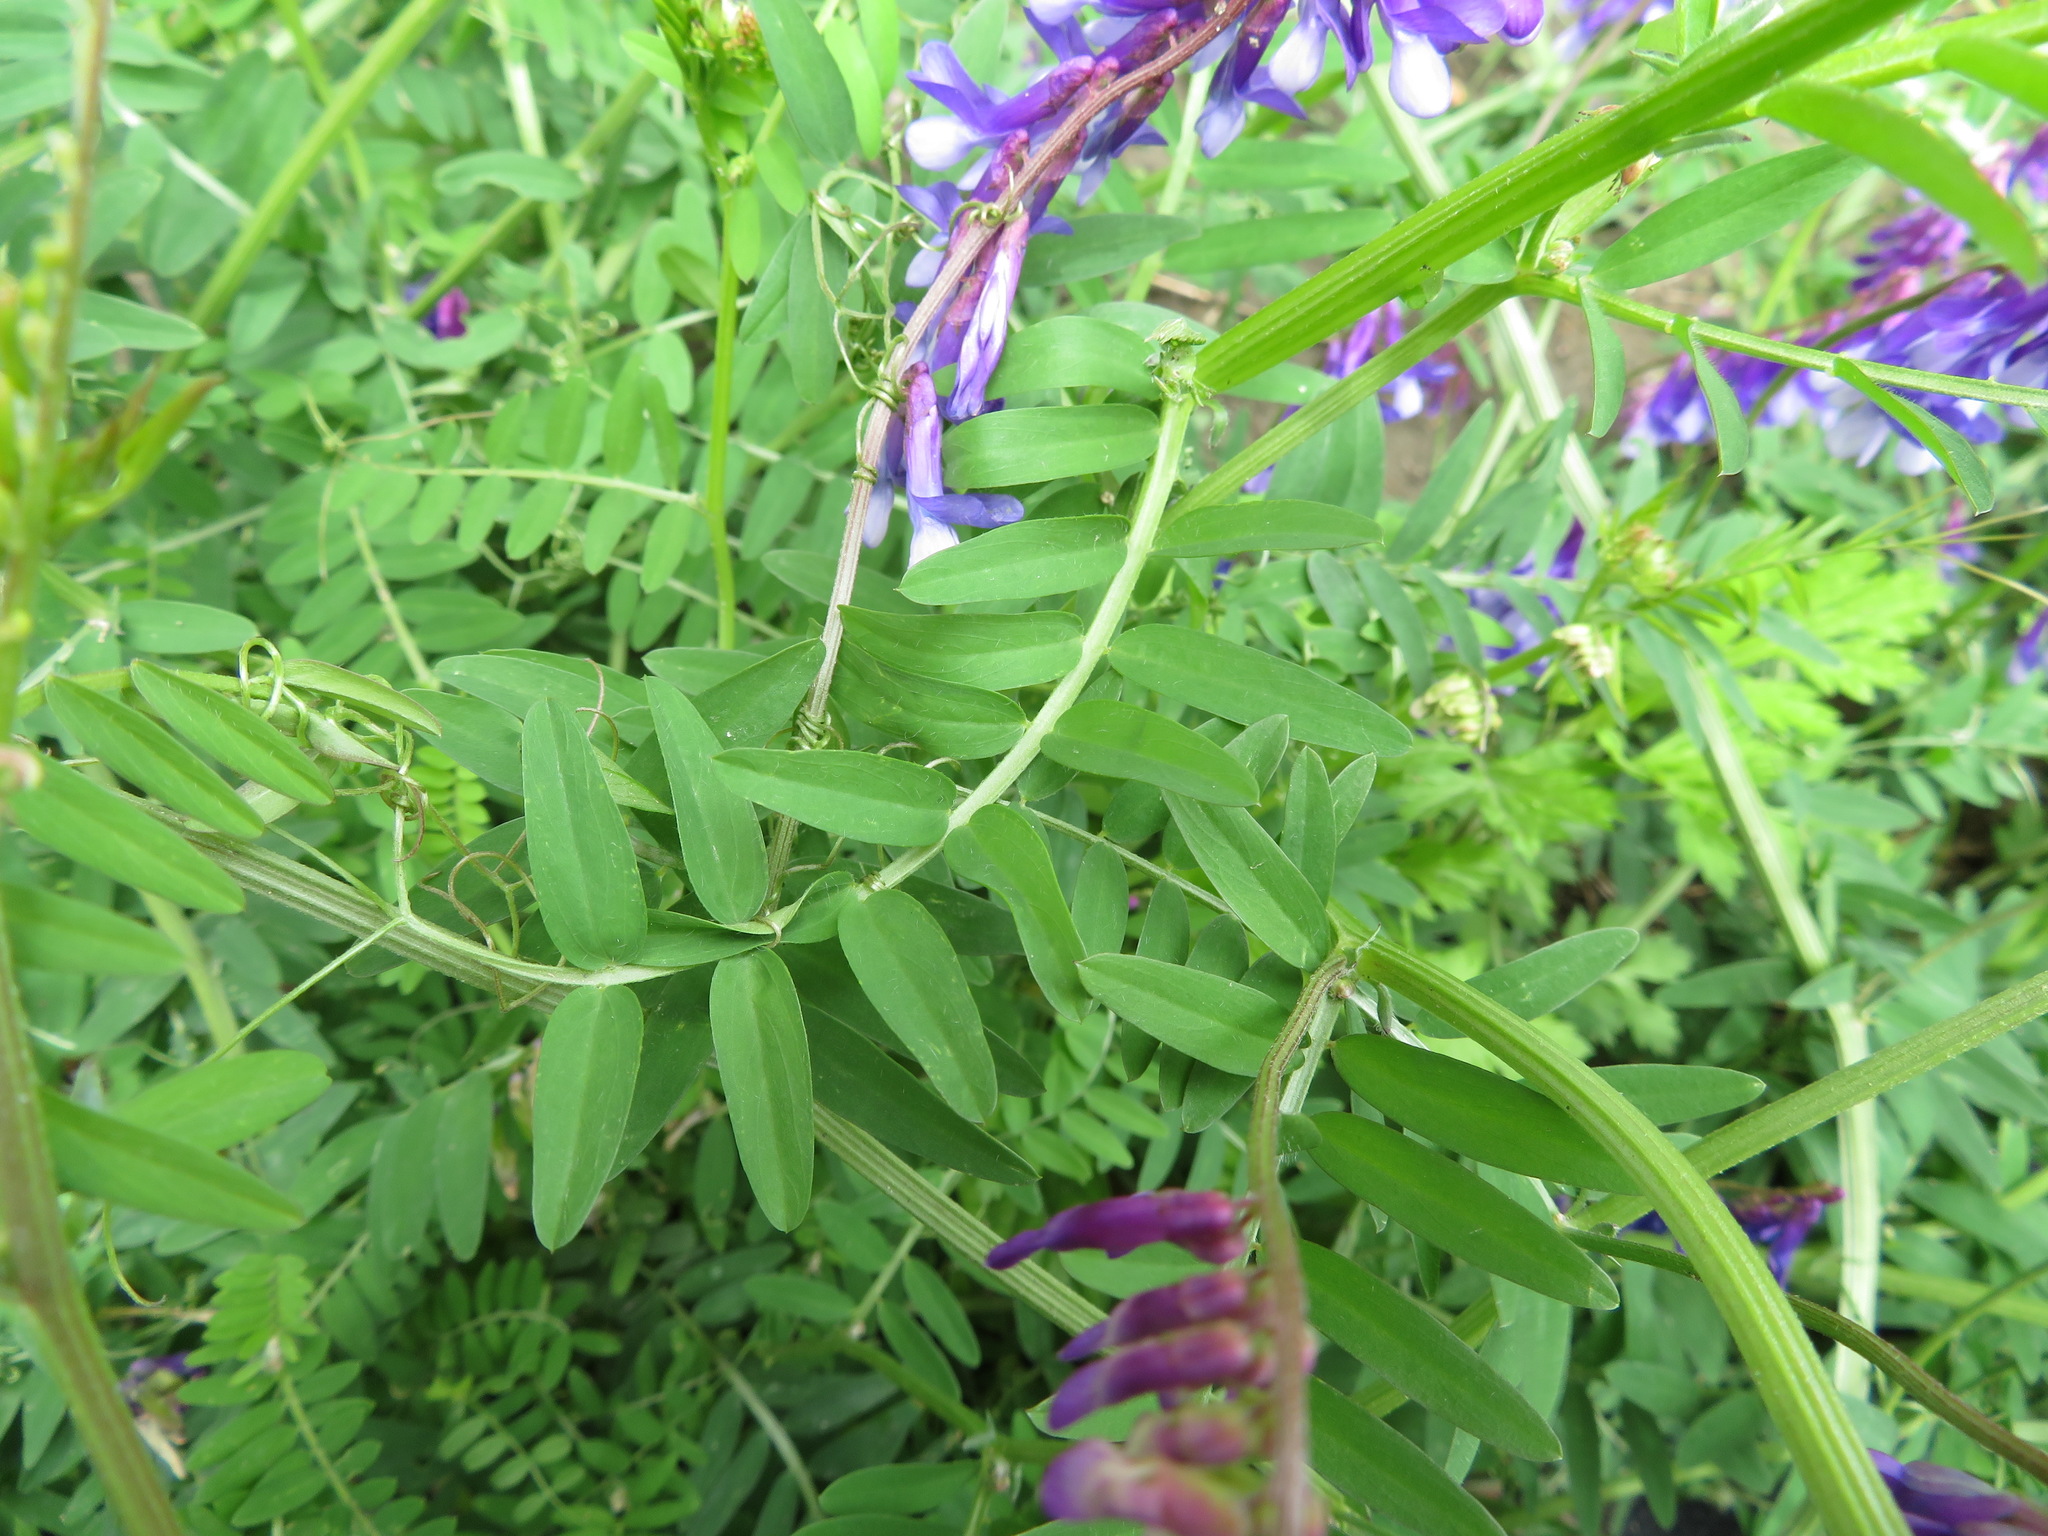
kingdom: Plantae
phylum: Tracheophyta
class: Magnoliopsida
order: Fabales
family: Fabaceae
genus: Vicia
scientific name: Vicia villosa
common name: Fodder vetch
